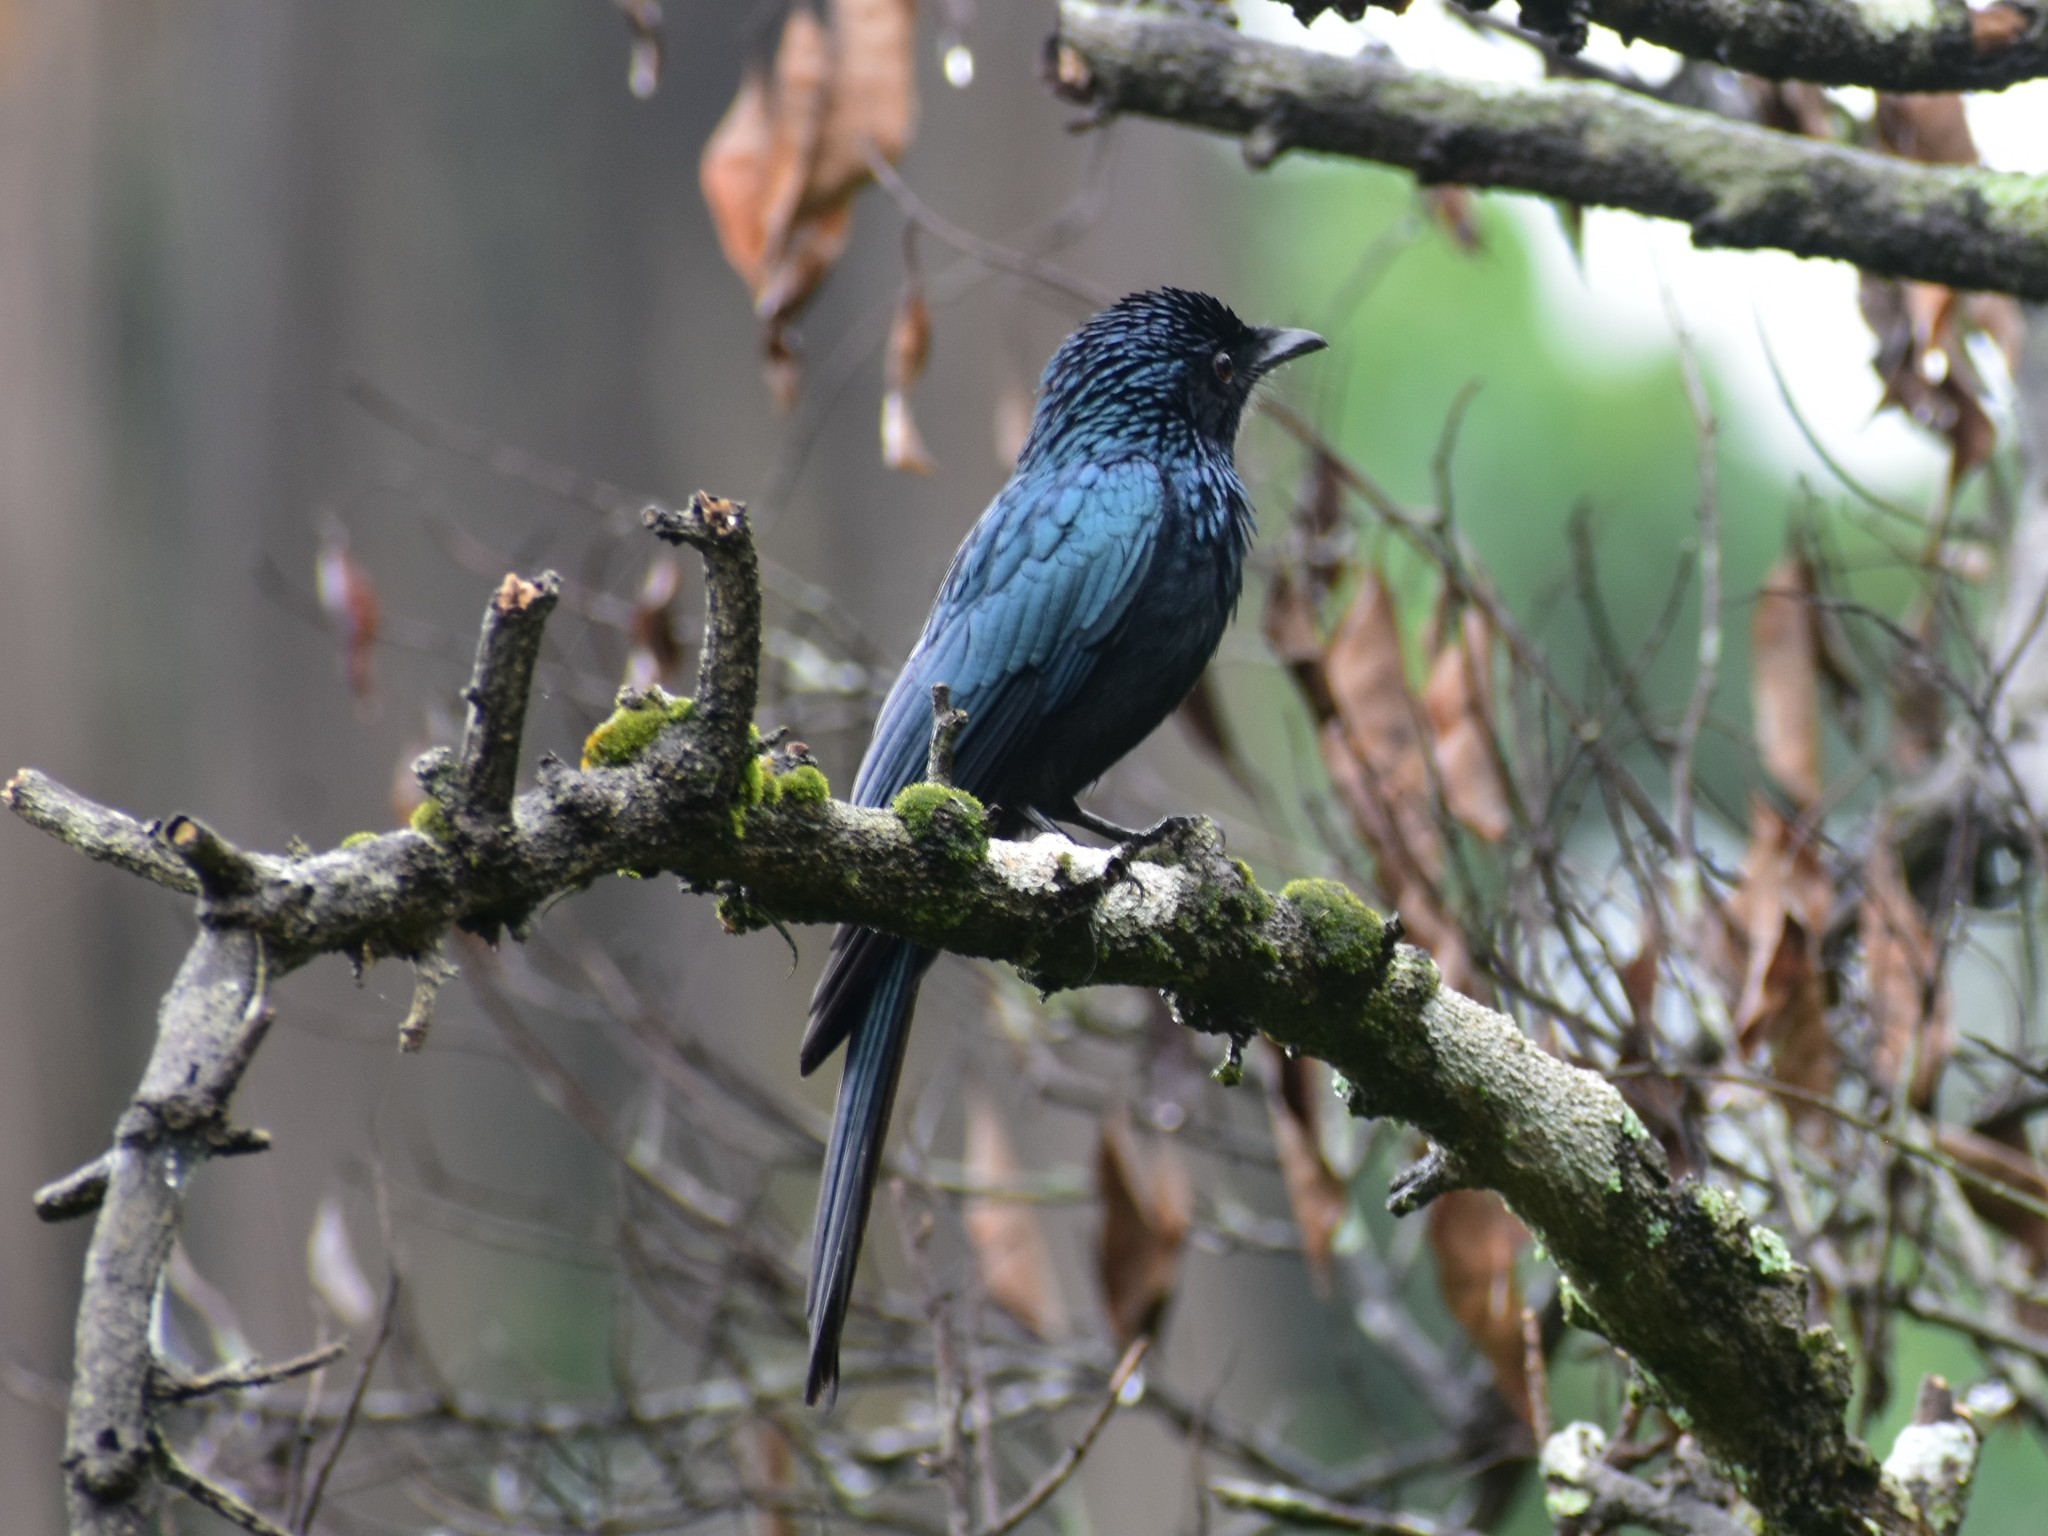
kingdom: Animalia
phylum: Chordata
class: Aves
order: Passeriformes
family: Dicruridae
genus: Dicrurus
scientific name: Dicrurus aeneus
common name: Bronzed drongo
